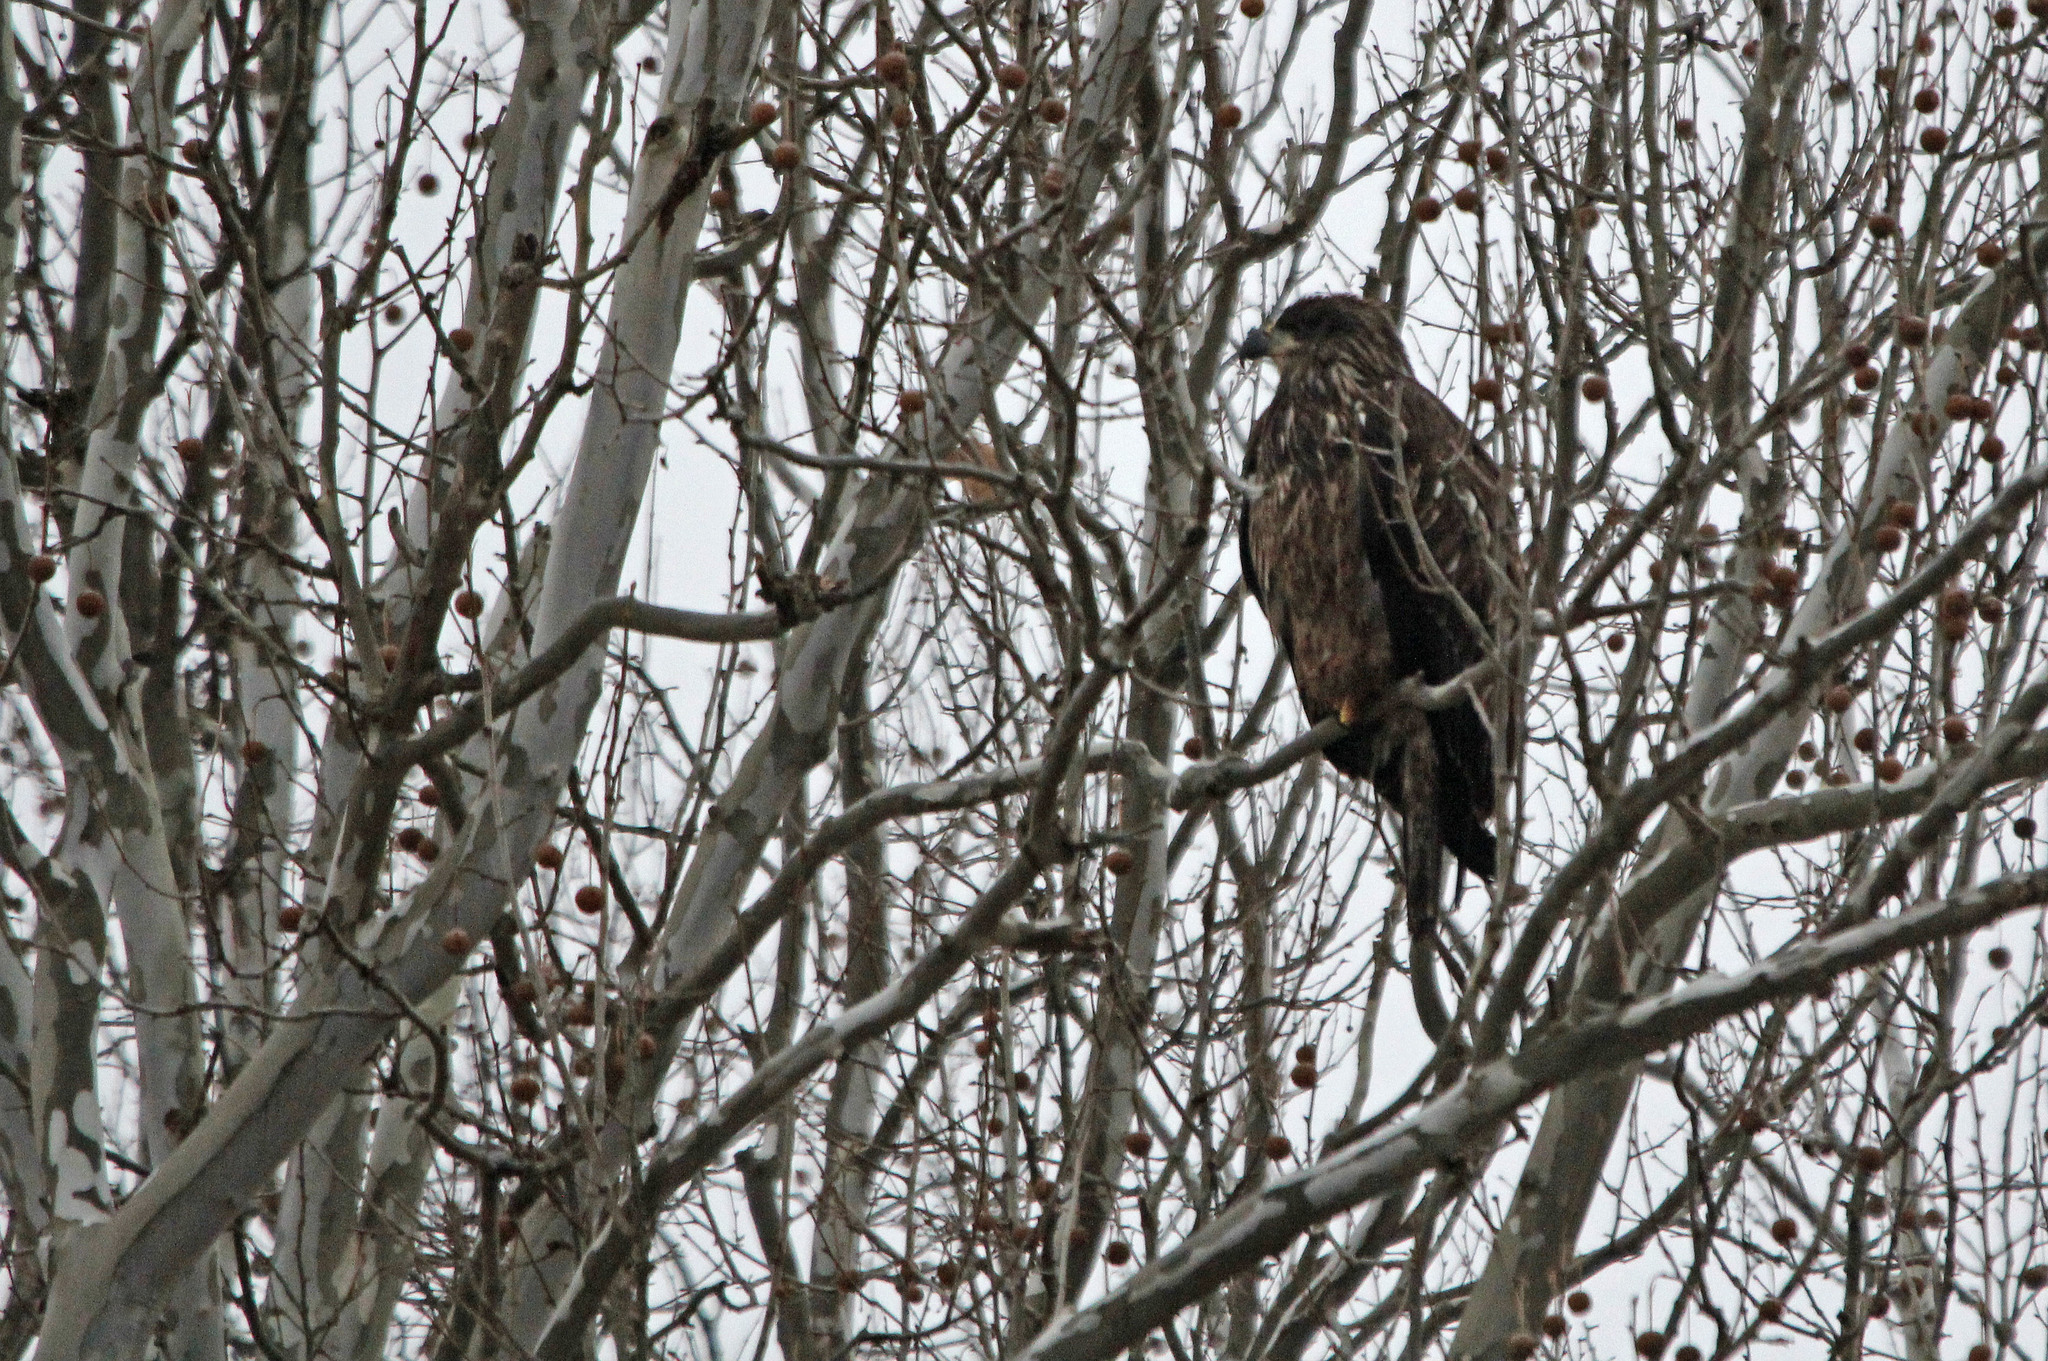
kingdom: Animalia
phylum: Chordata
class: Aves
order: Accipitriformes
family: Accipitridae
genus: Haliaeetus
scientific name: Haliaeetus leucocephalus
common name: Bald eagle
